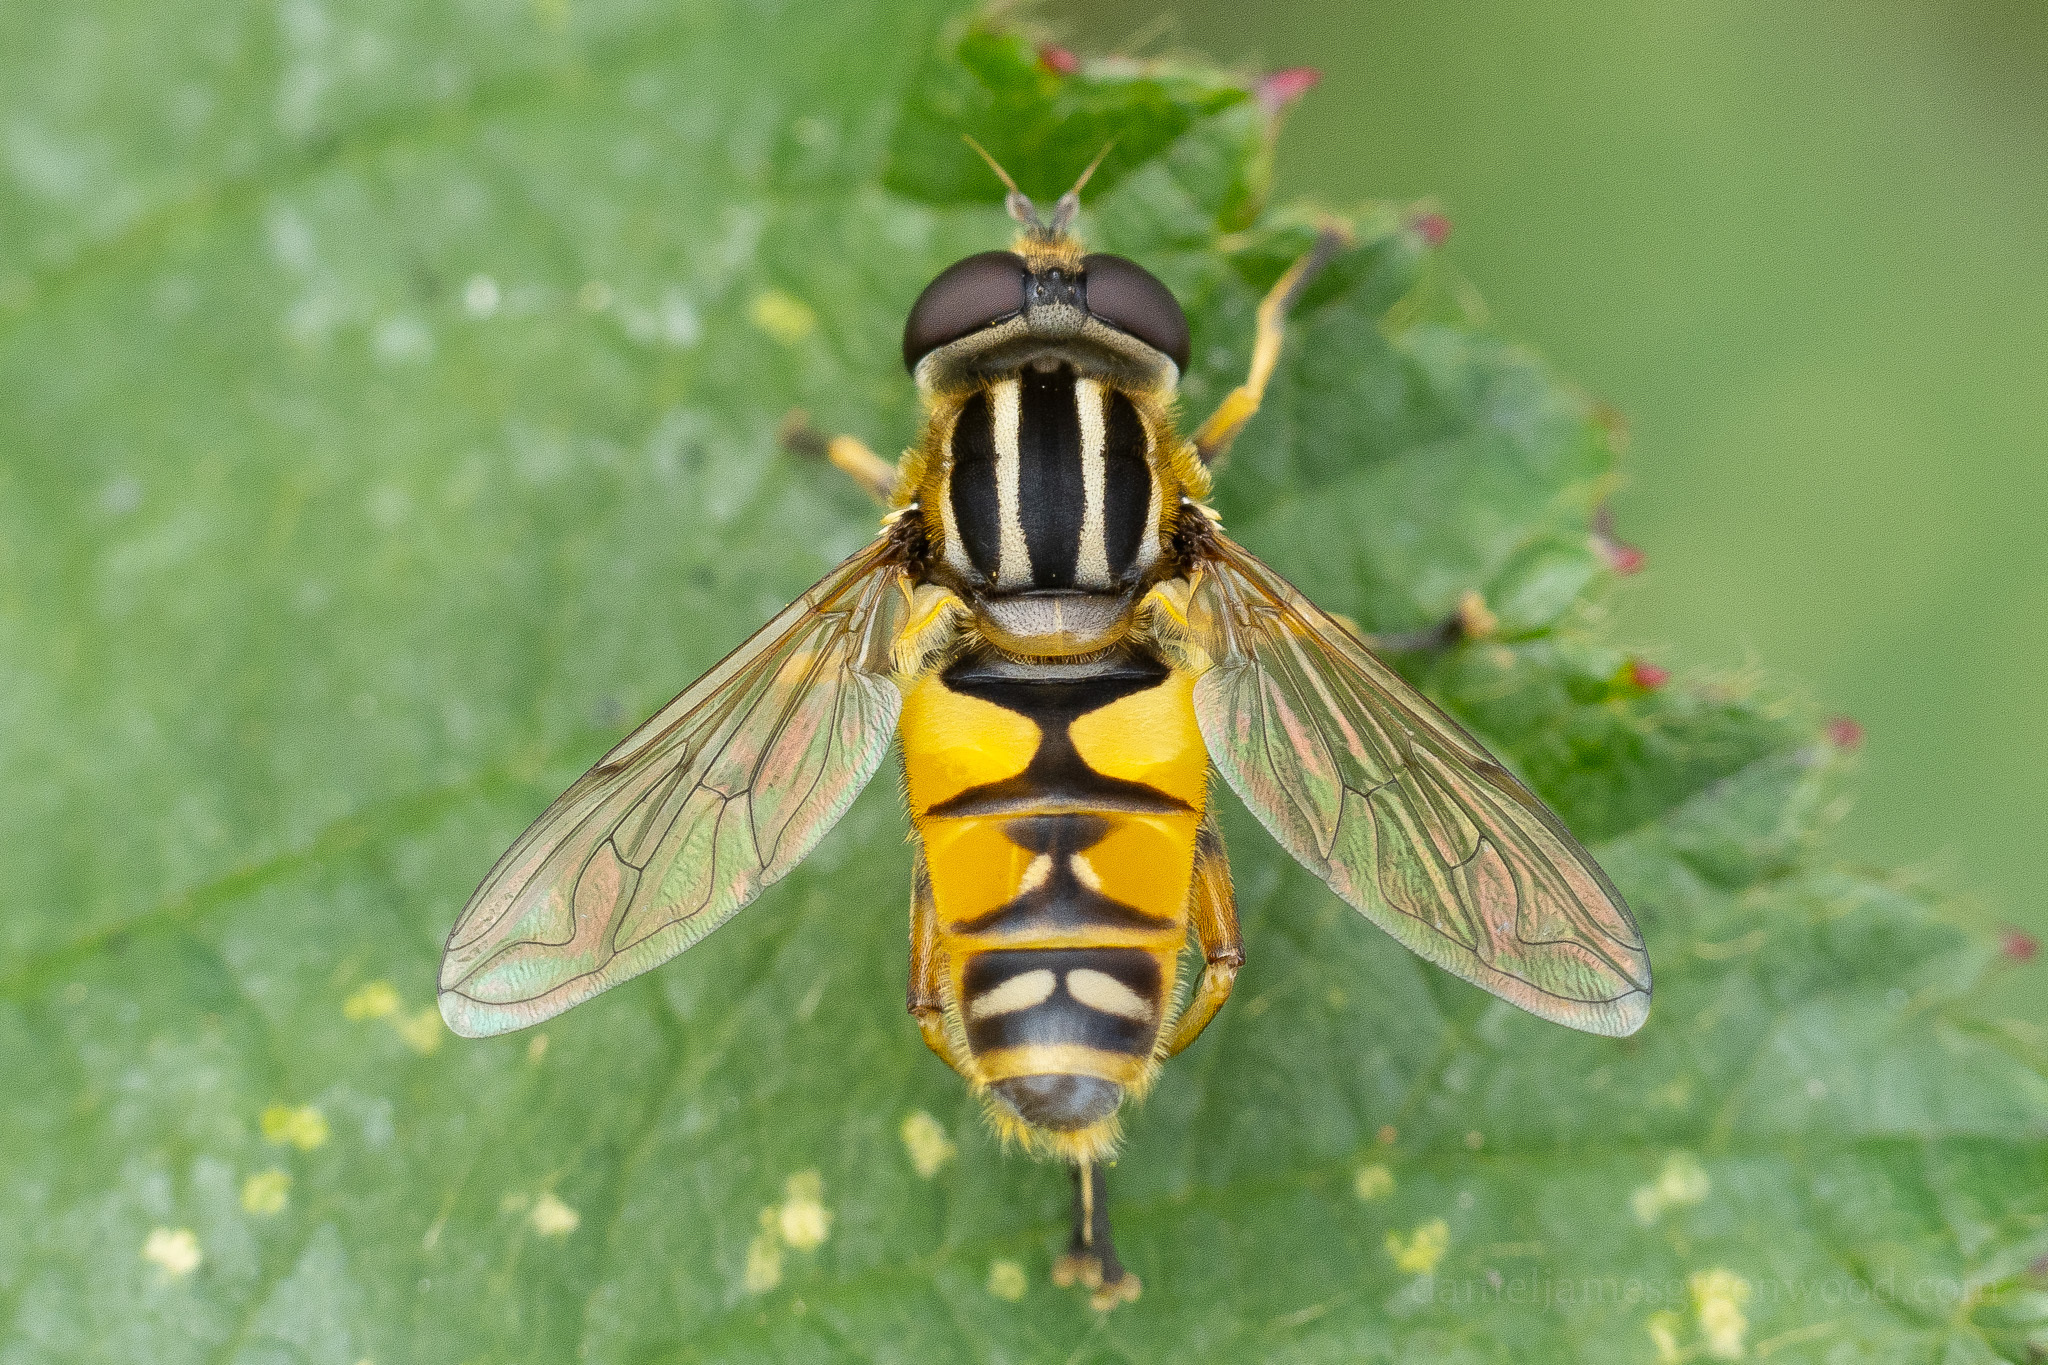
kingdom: Animalia
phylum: Arthropoda
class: Insecta
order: Diptera
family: Syrphidae
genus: Helophilus
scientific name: Helophilus pendulus
